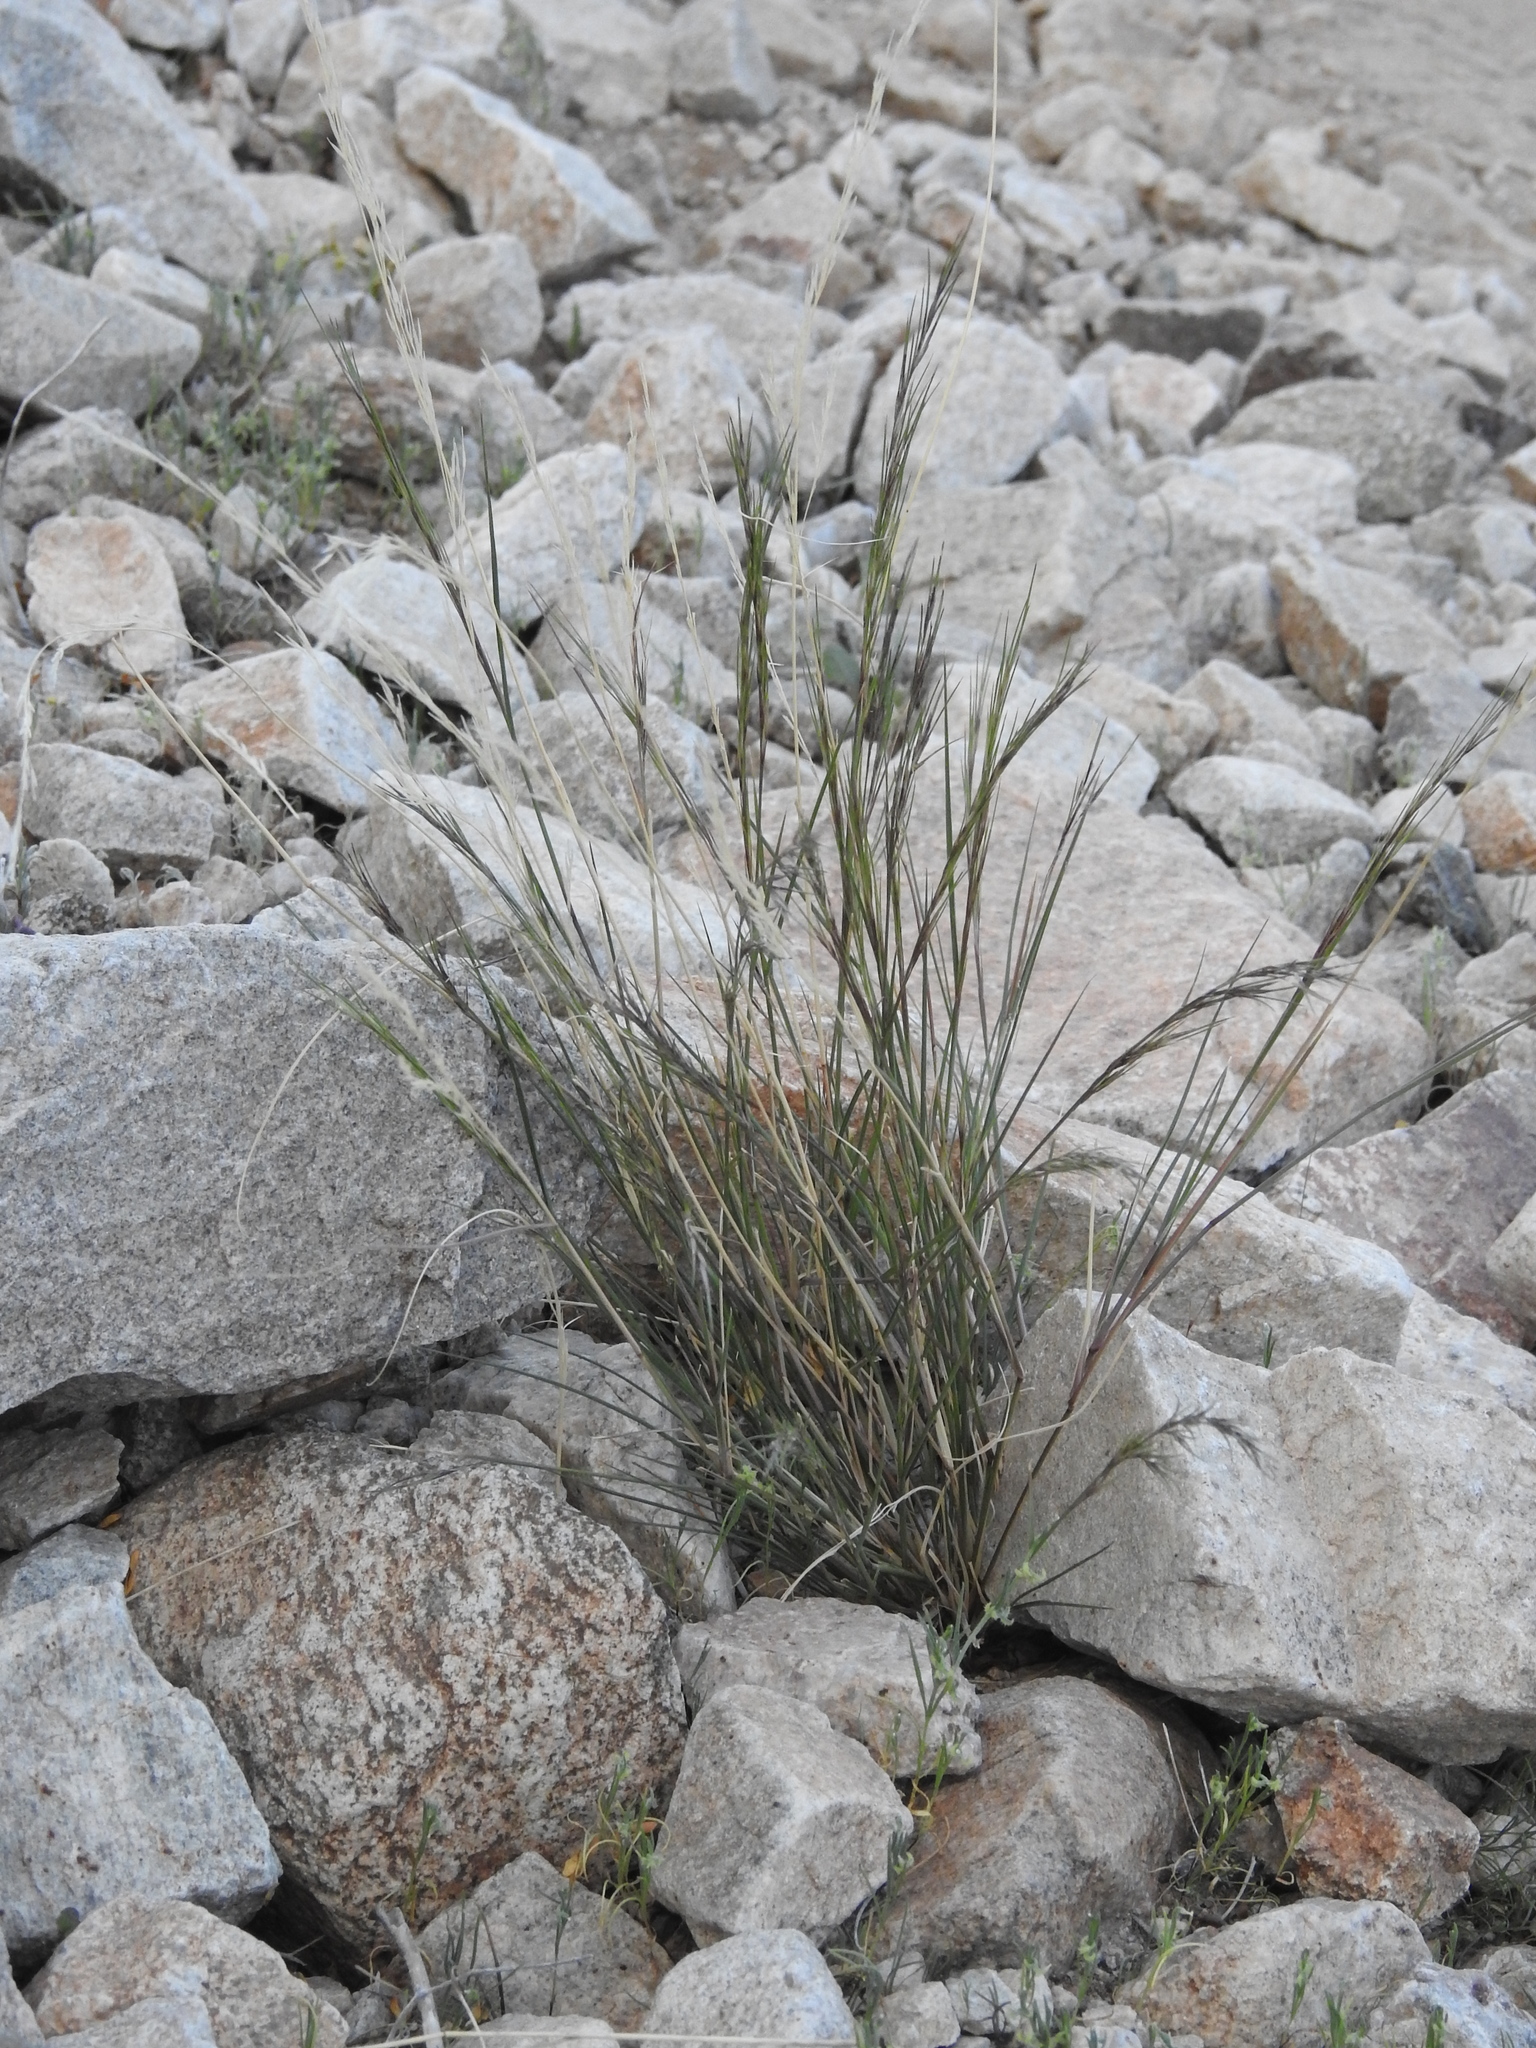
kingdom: Plantae
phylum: Tracheophyta
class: Liliopsida
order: Poales
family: Poaceae
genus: Aristida
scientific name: Aristida adscensionis
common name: Sixweeks threeawn
